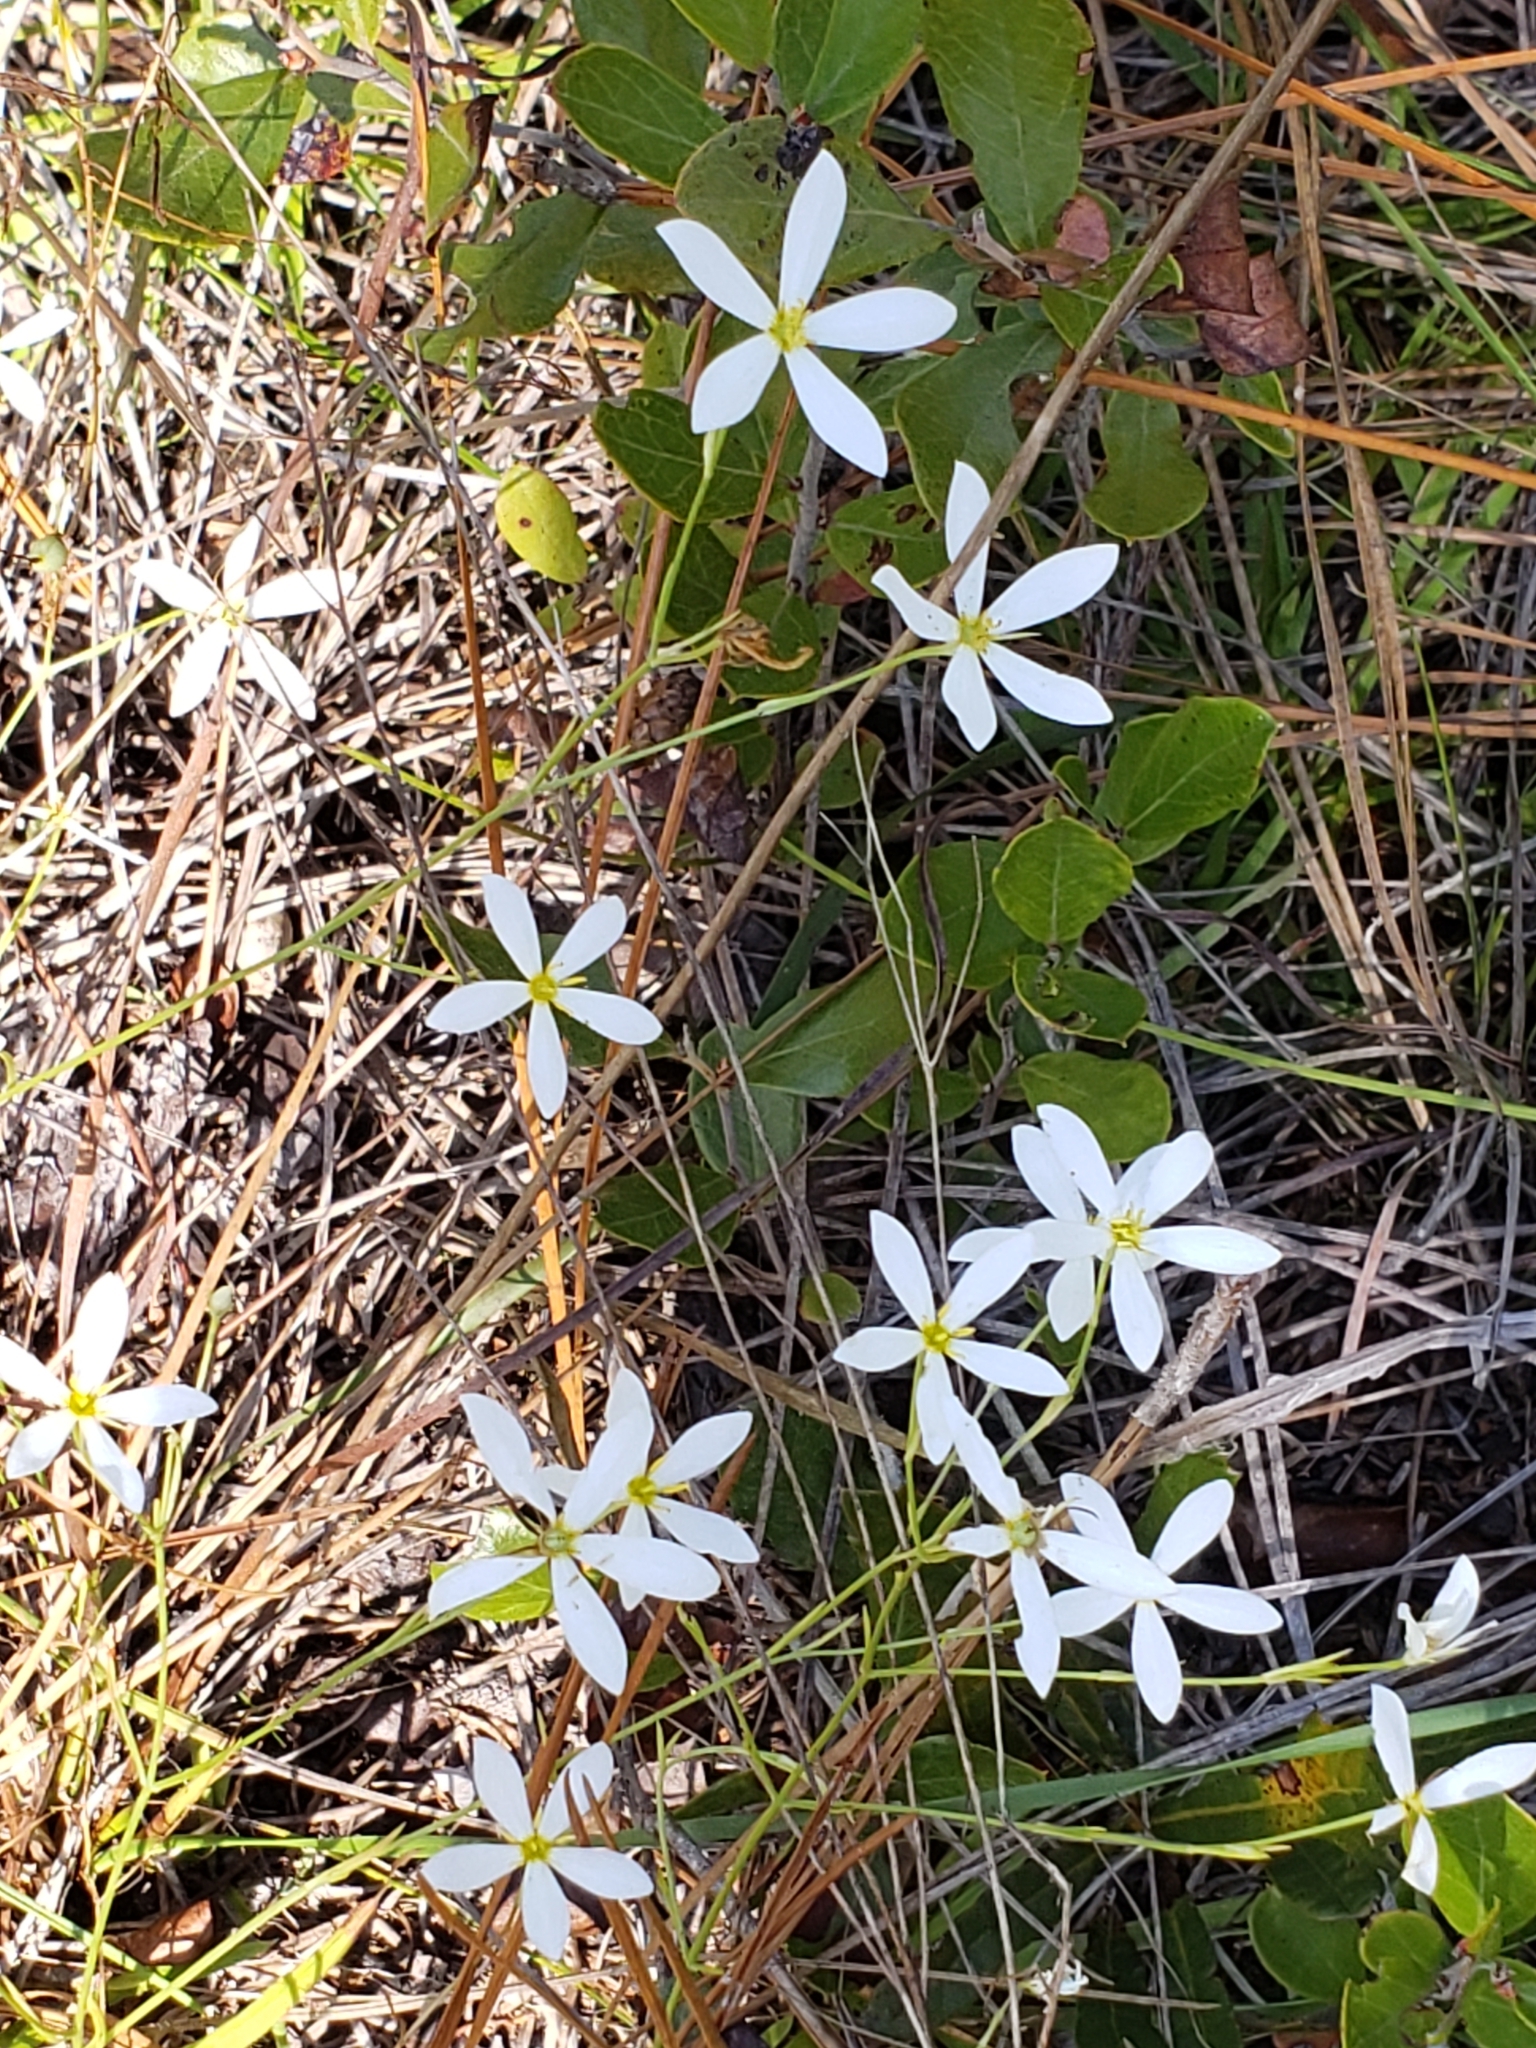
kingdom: Plantae
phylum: Tracheophyta
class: Magnoliopsida
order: Gentianales
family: Gentianaceae
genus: Sabatia
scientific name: Sabatia brevifolia
